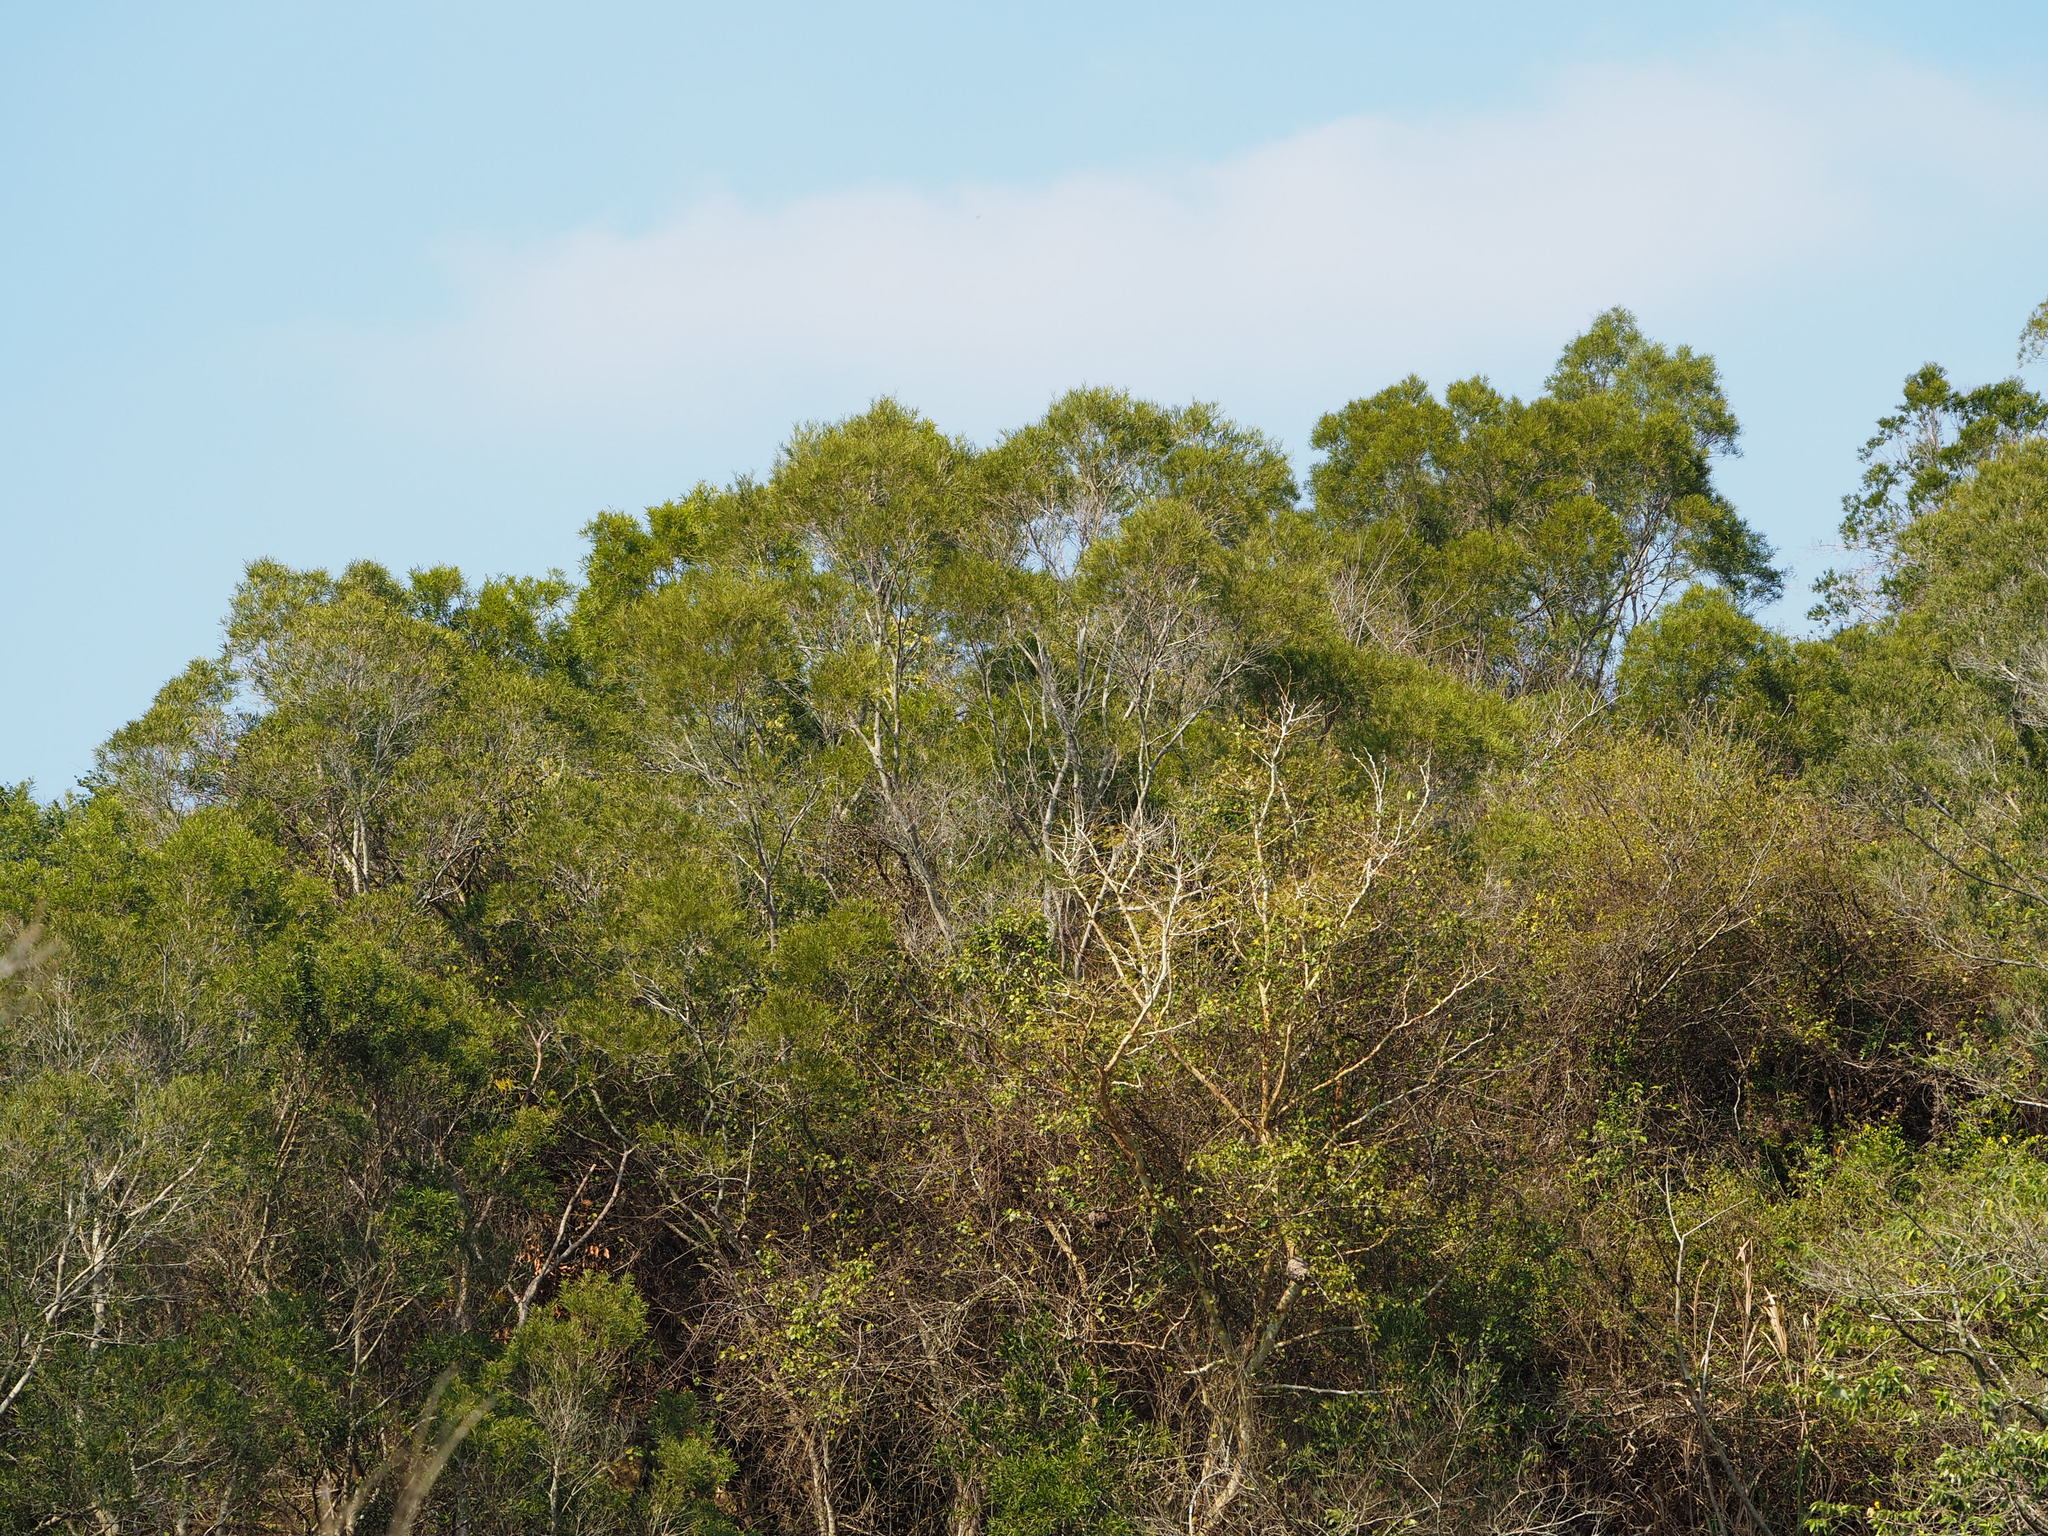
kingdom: Plantae
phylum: Tracheophyta
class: Magnoliopsida
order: Fabales
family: Fabaceae
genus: Acacia
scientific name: Acacia confusa
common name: Formosan koa
